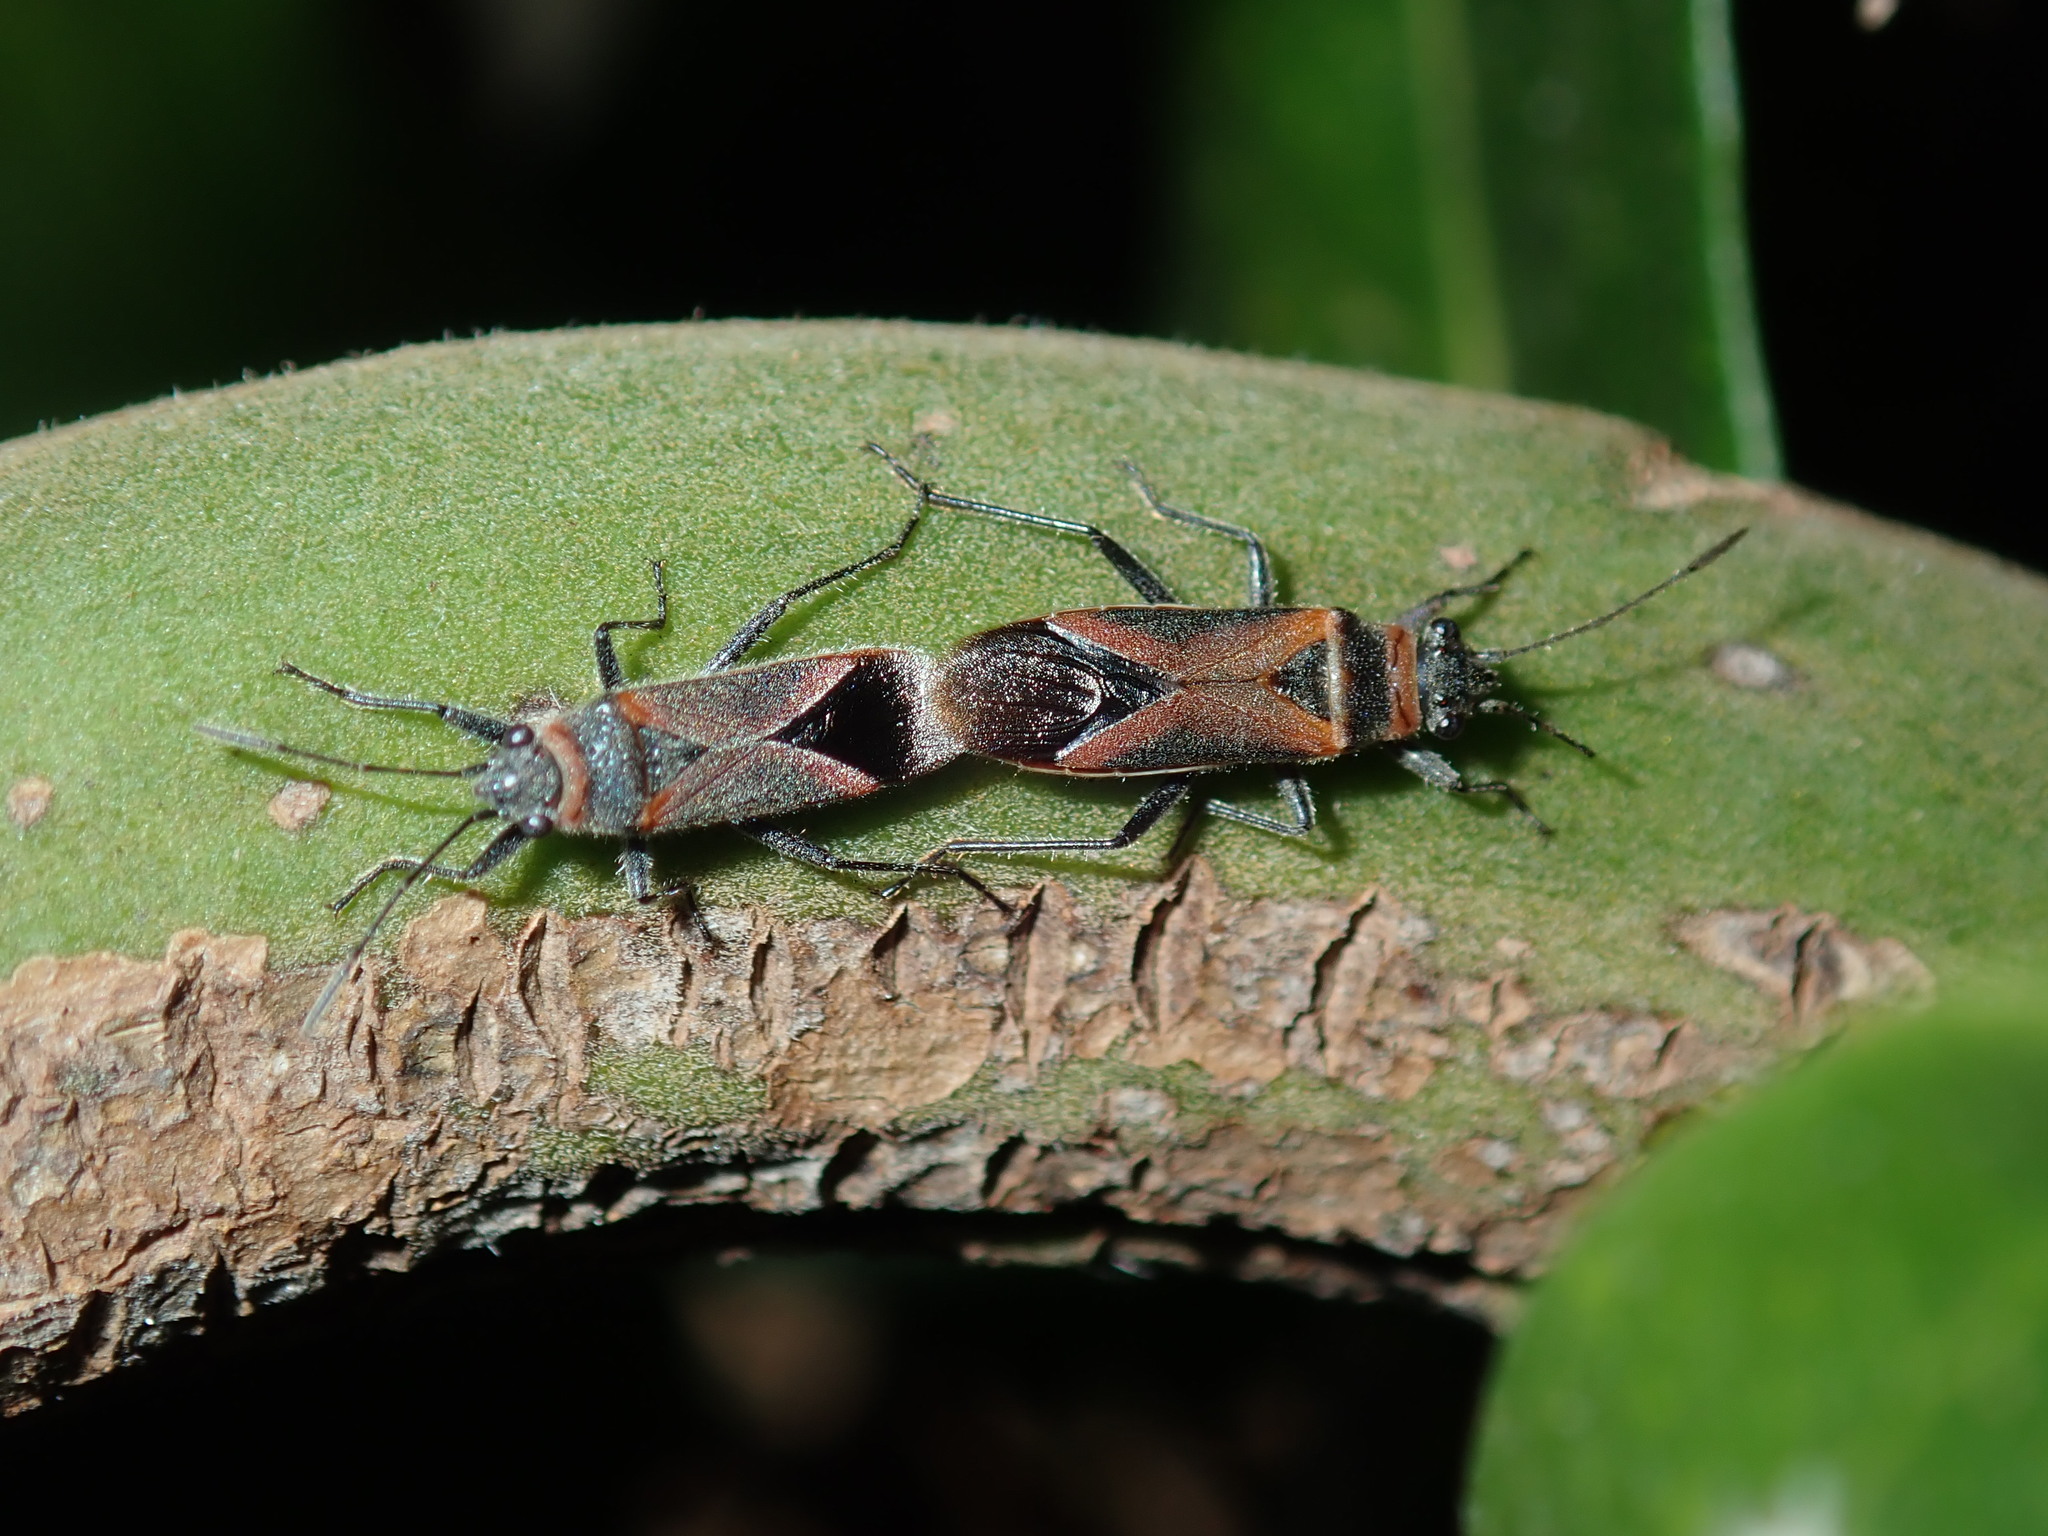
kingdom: Animalia
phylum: Arthropoda
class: Insecta
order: Hemiptera
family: Lygaeidae
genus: Arocatus
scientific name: Arocatus rusticus
